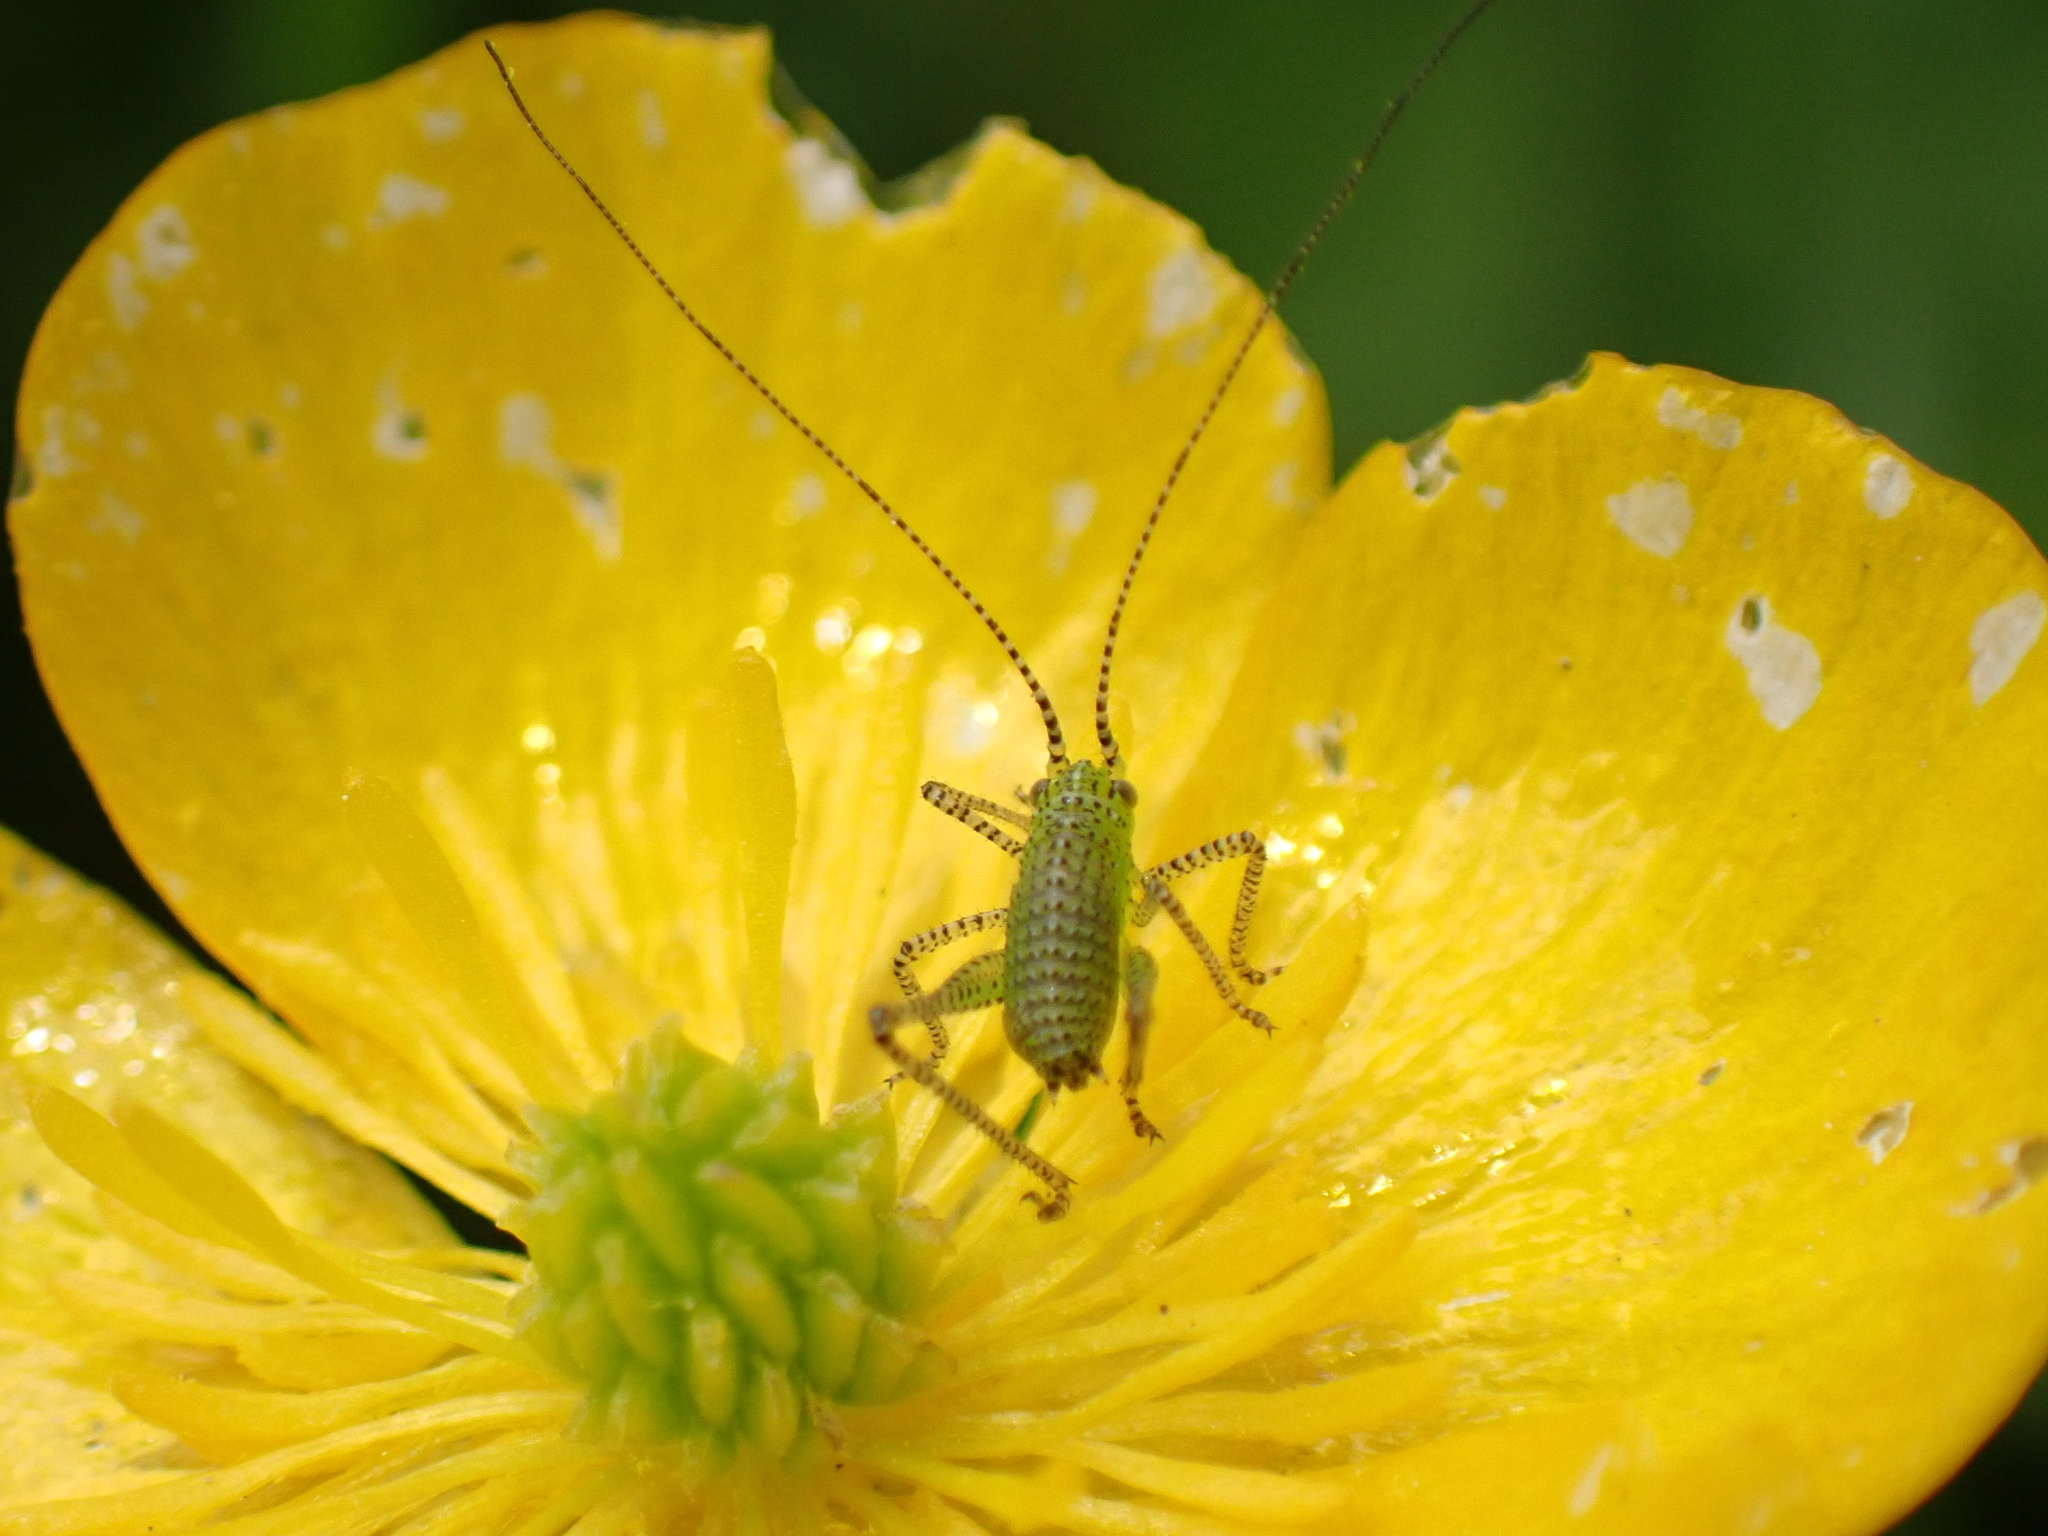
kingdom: Animalia
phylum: Arthropoda
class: Insecta
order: Orthoptera
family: Tettigoniidae
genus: Leptophyes
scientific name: Leptophyes punctatissima
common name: Speckled bush-cricket
